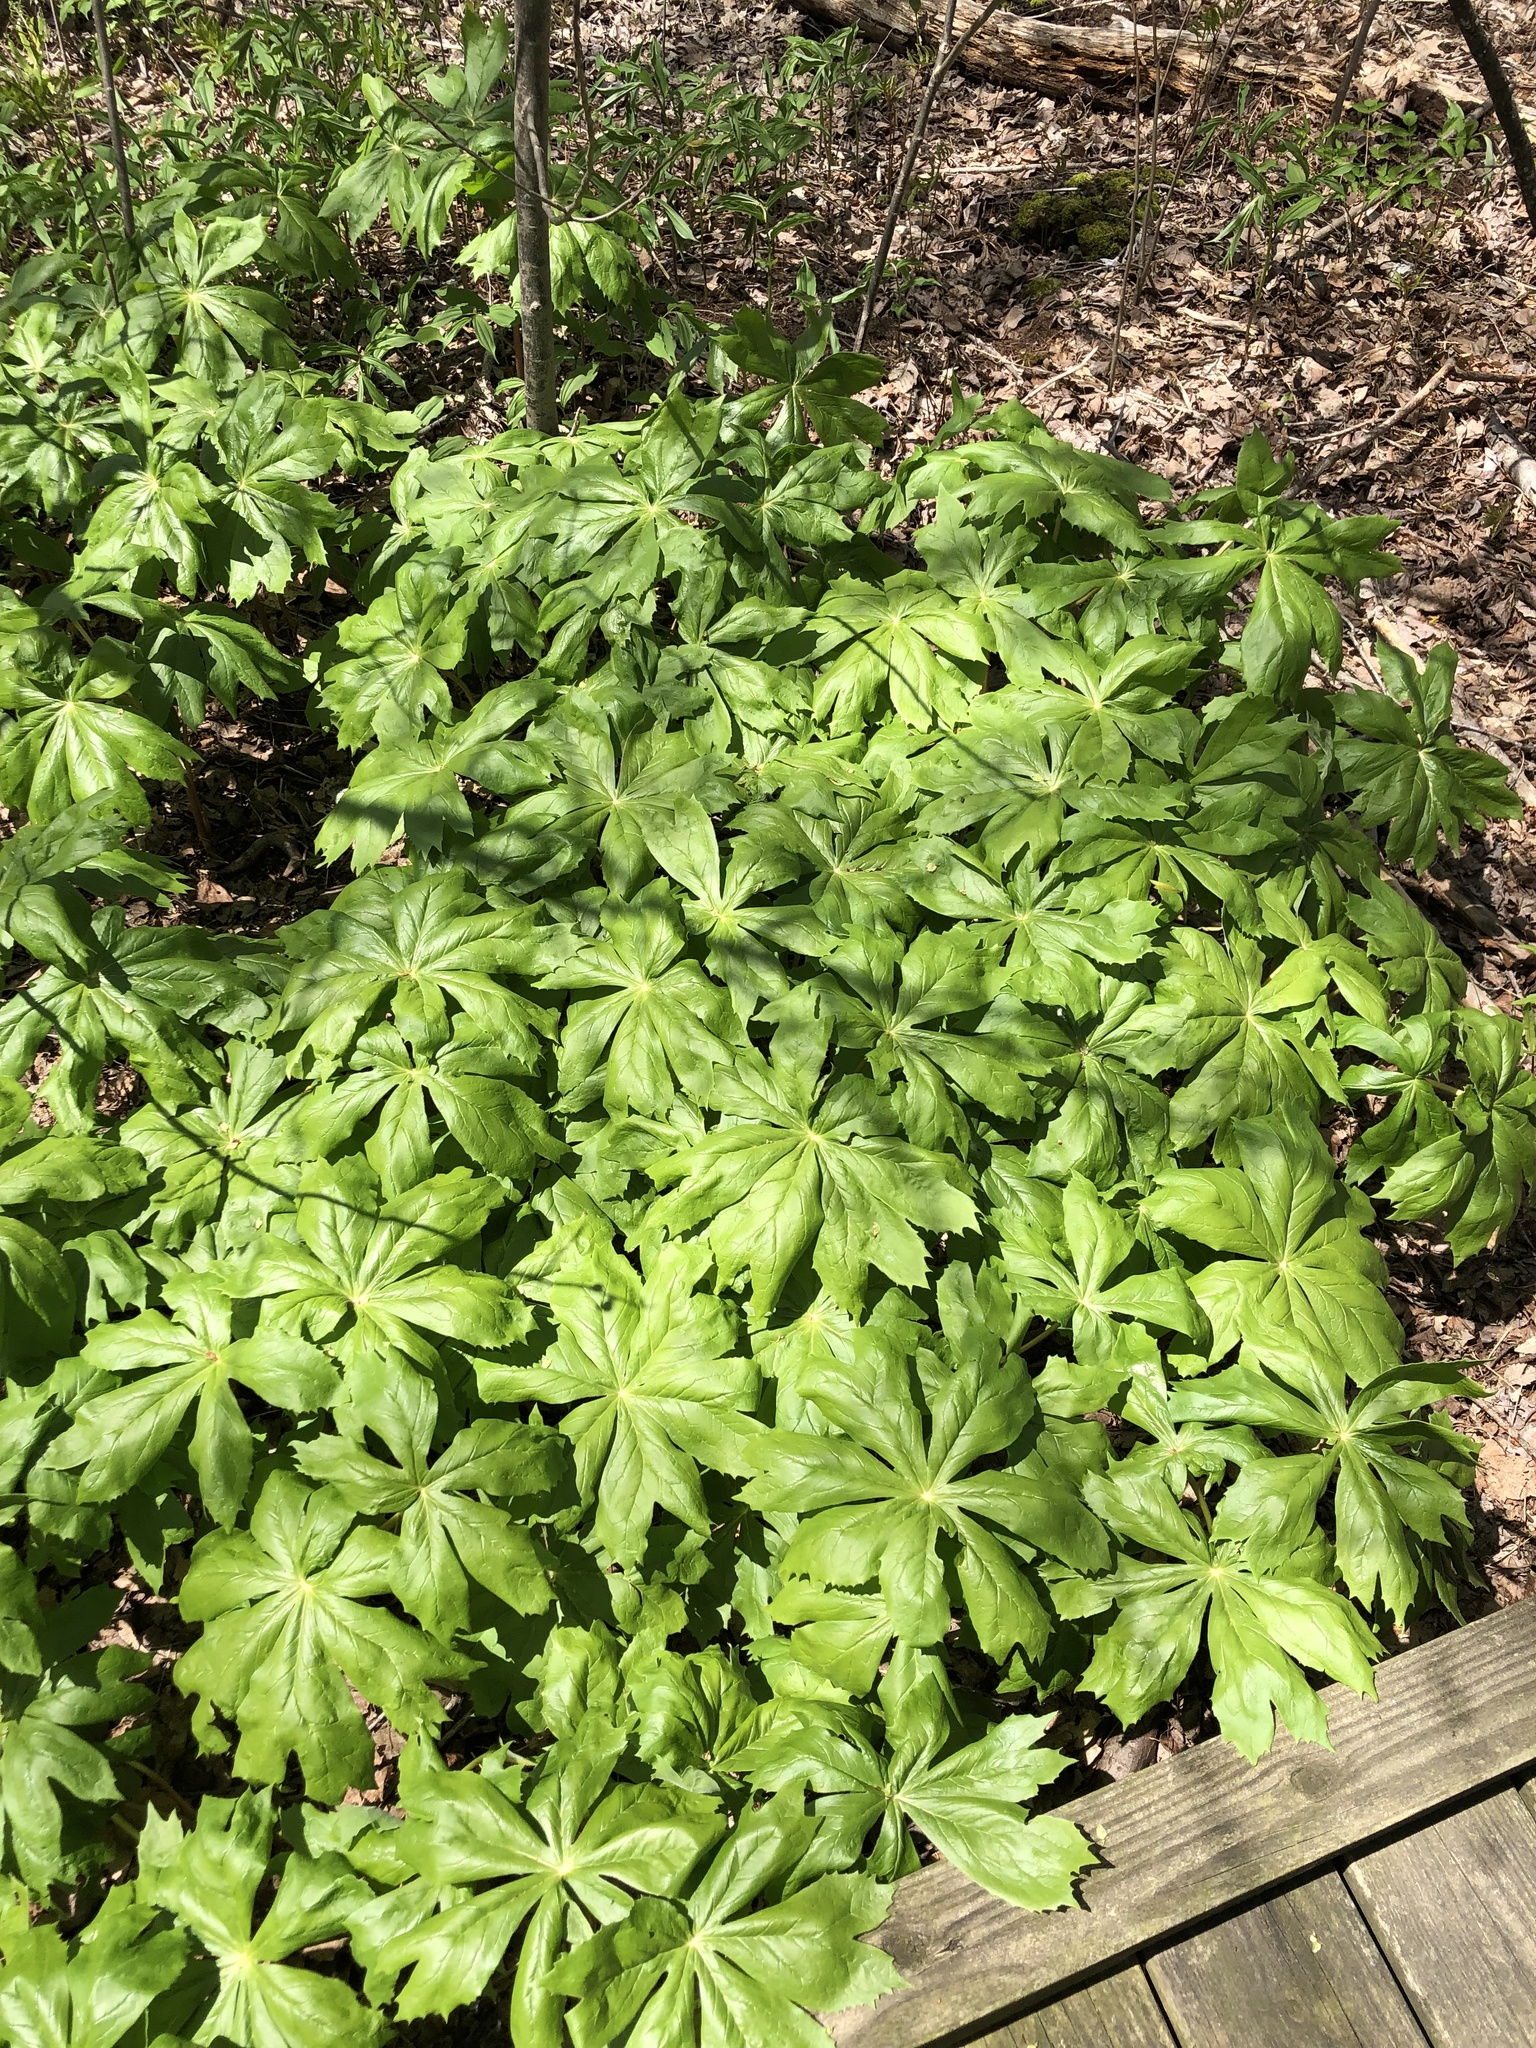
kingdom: Plantae
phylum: Tracheophyta
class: Magnoliopsida
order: Ranunculales
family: Berberidaceae
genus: Podophyllum
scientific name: Podophyllum peltatum
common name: Wild mandrake
